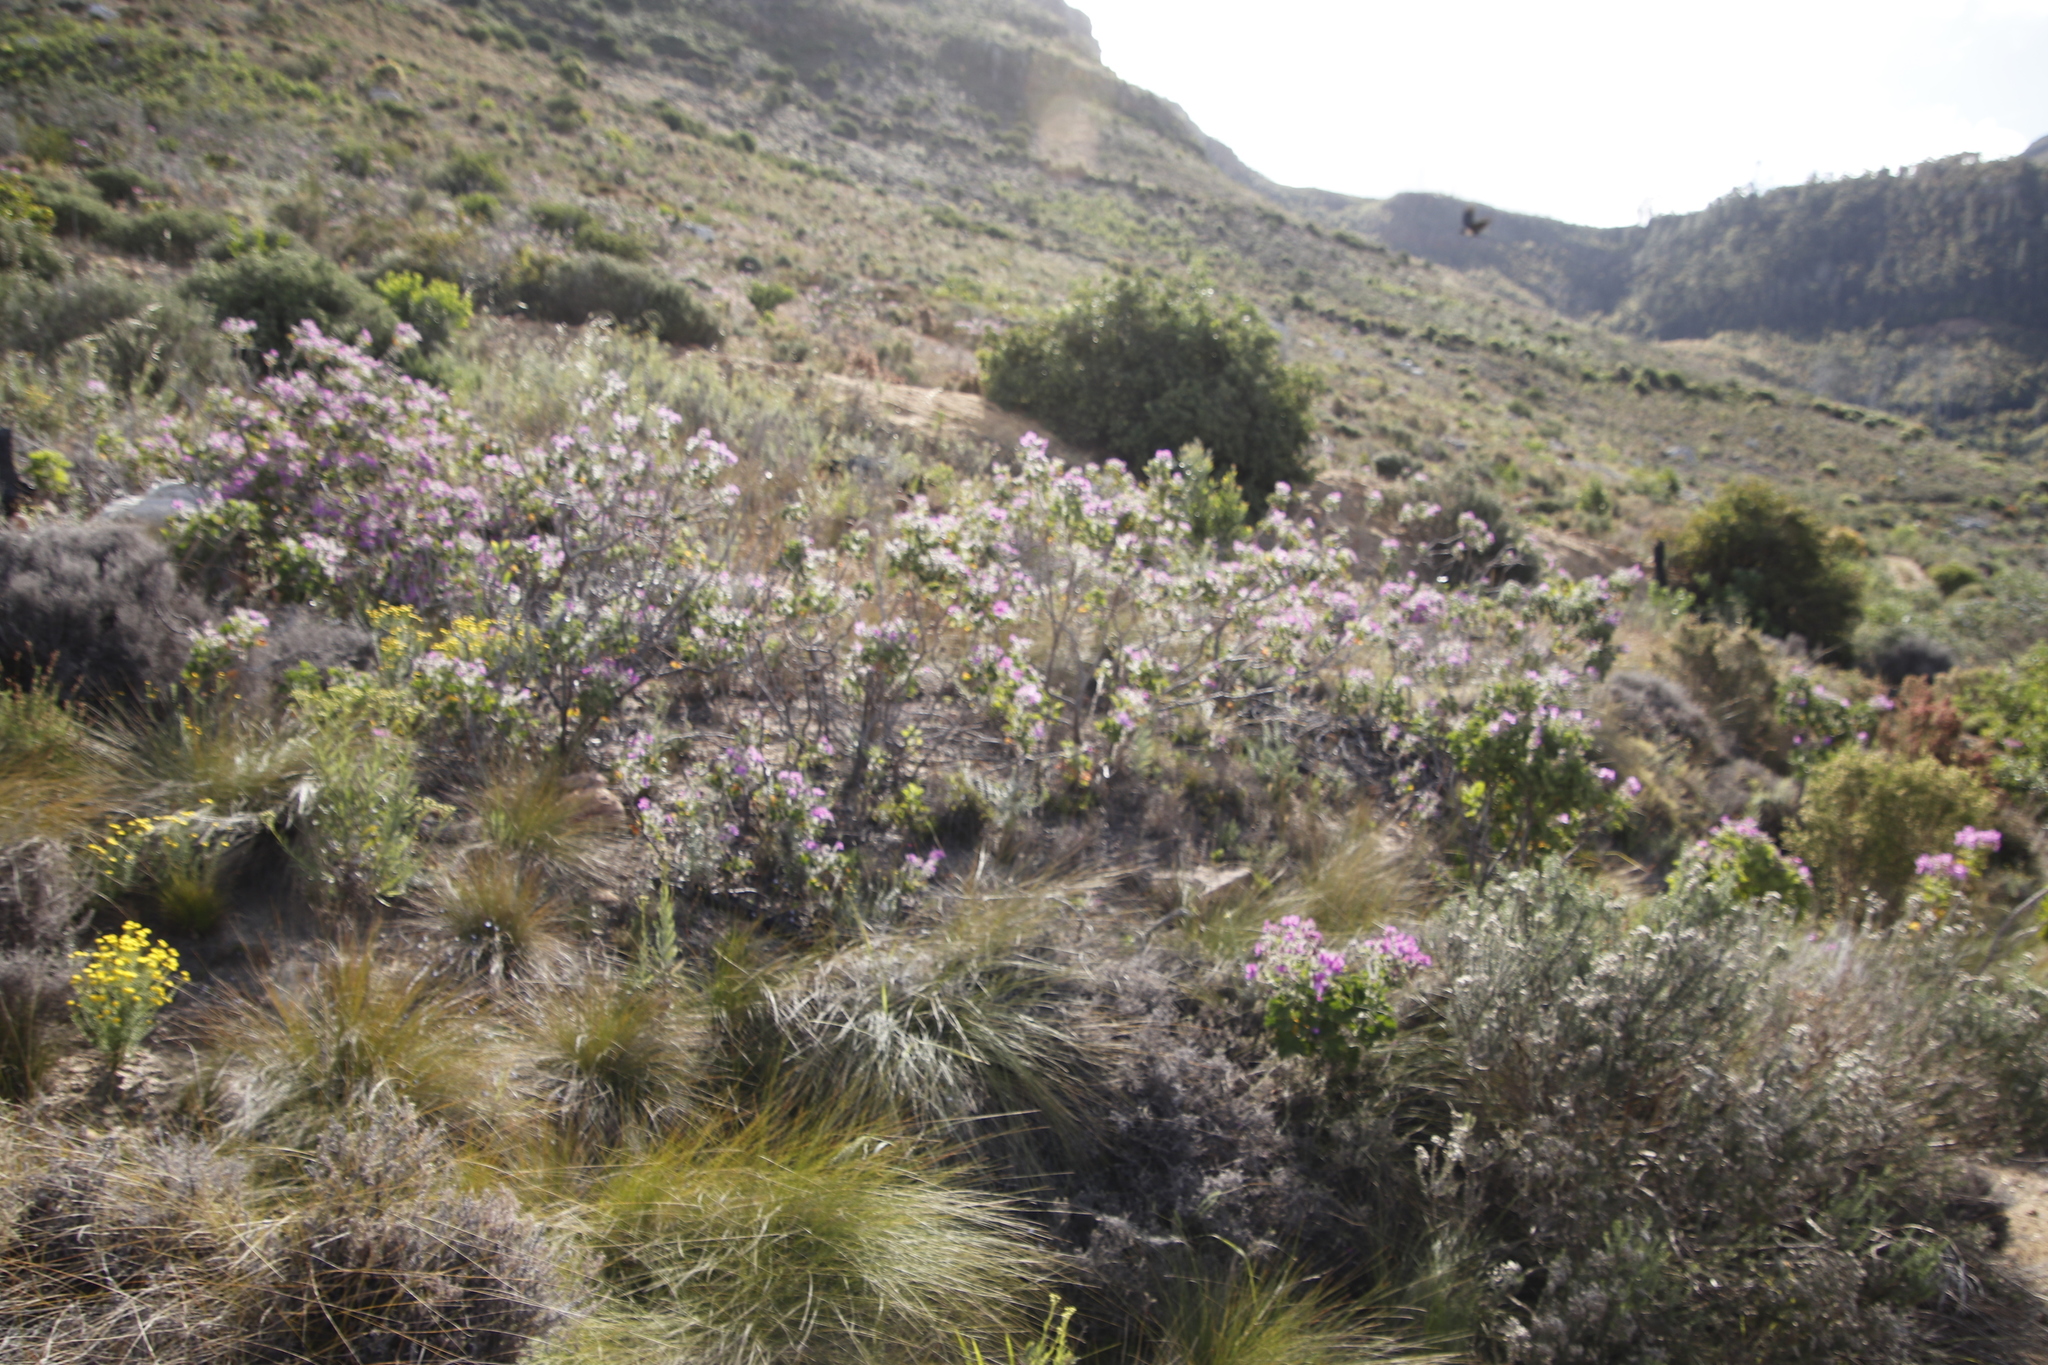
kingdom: Plantae
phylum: Tracheophyta
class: Magnoliopsida
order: Geraniales
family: Geraniaceae
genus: Pelargonium
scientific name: Pelargonium cucullatum
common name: Tree pelargonium
